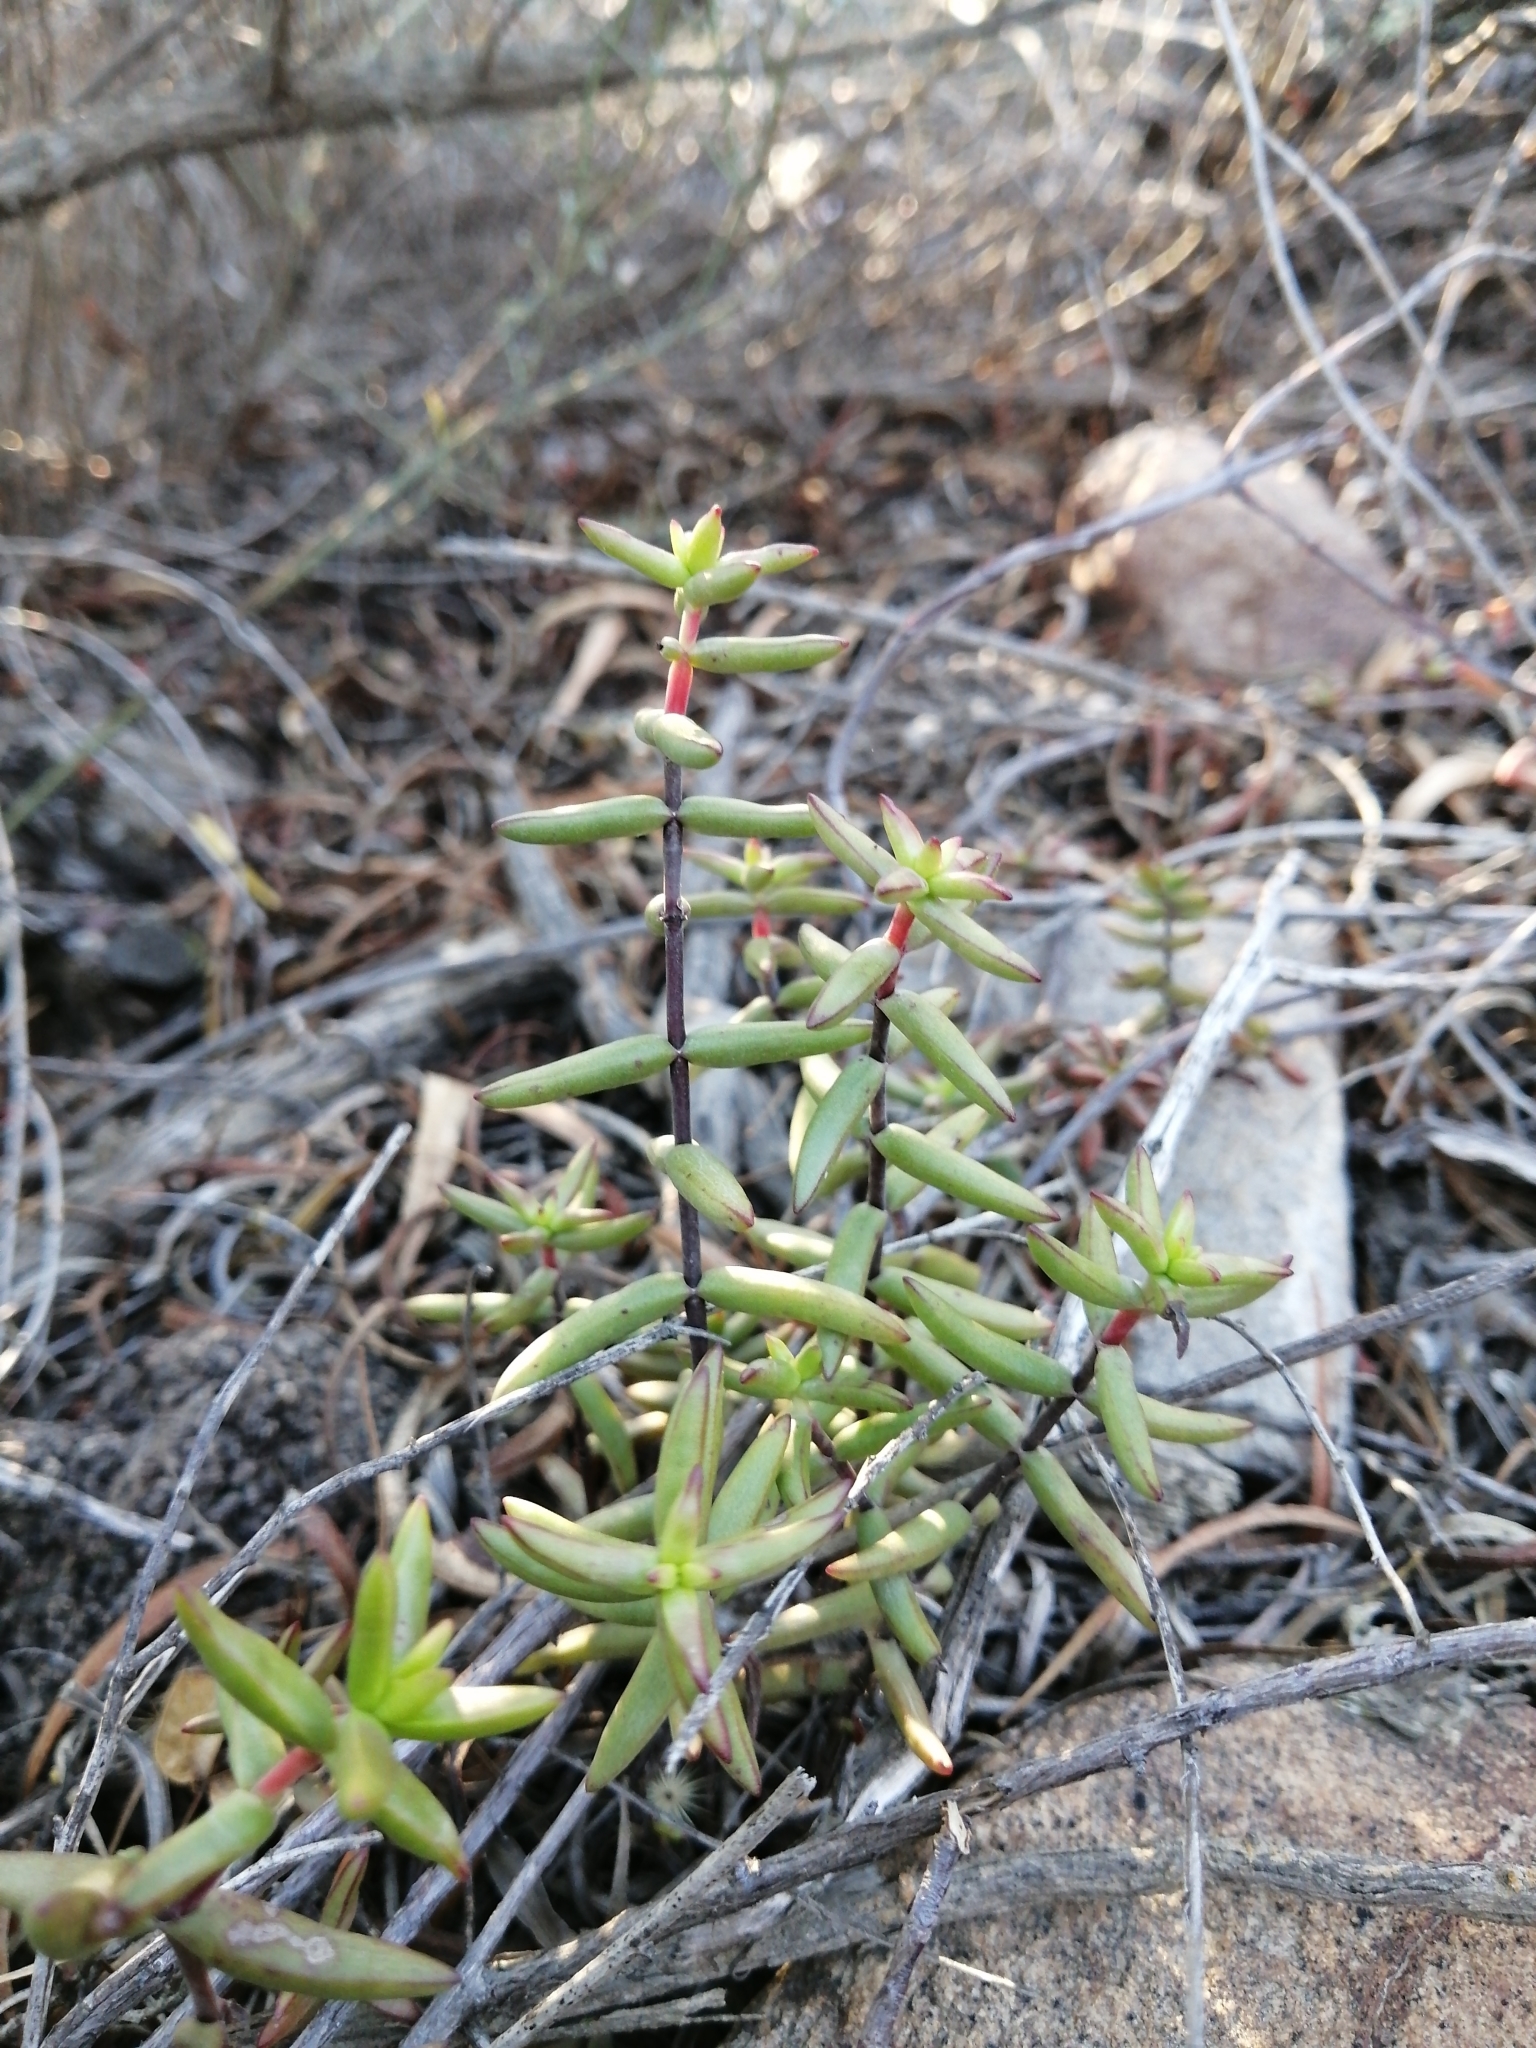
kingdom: Plantae
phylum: Tracheophyta
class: Magnoliopsida
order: Saxifragales
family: Crassulaceae
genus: Crassula
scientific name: Crassula subaphylla
